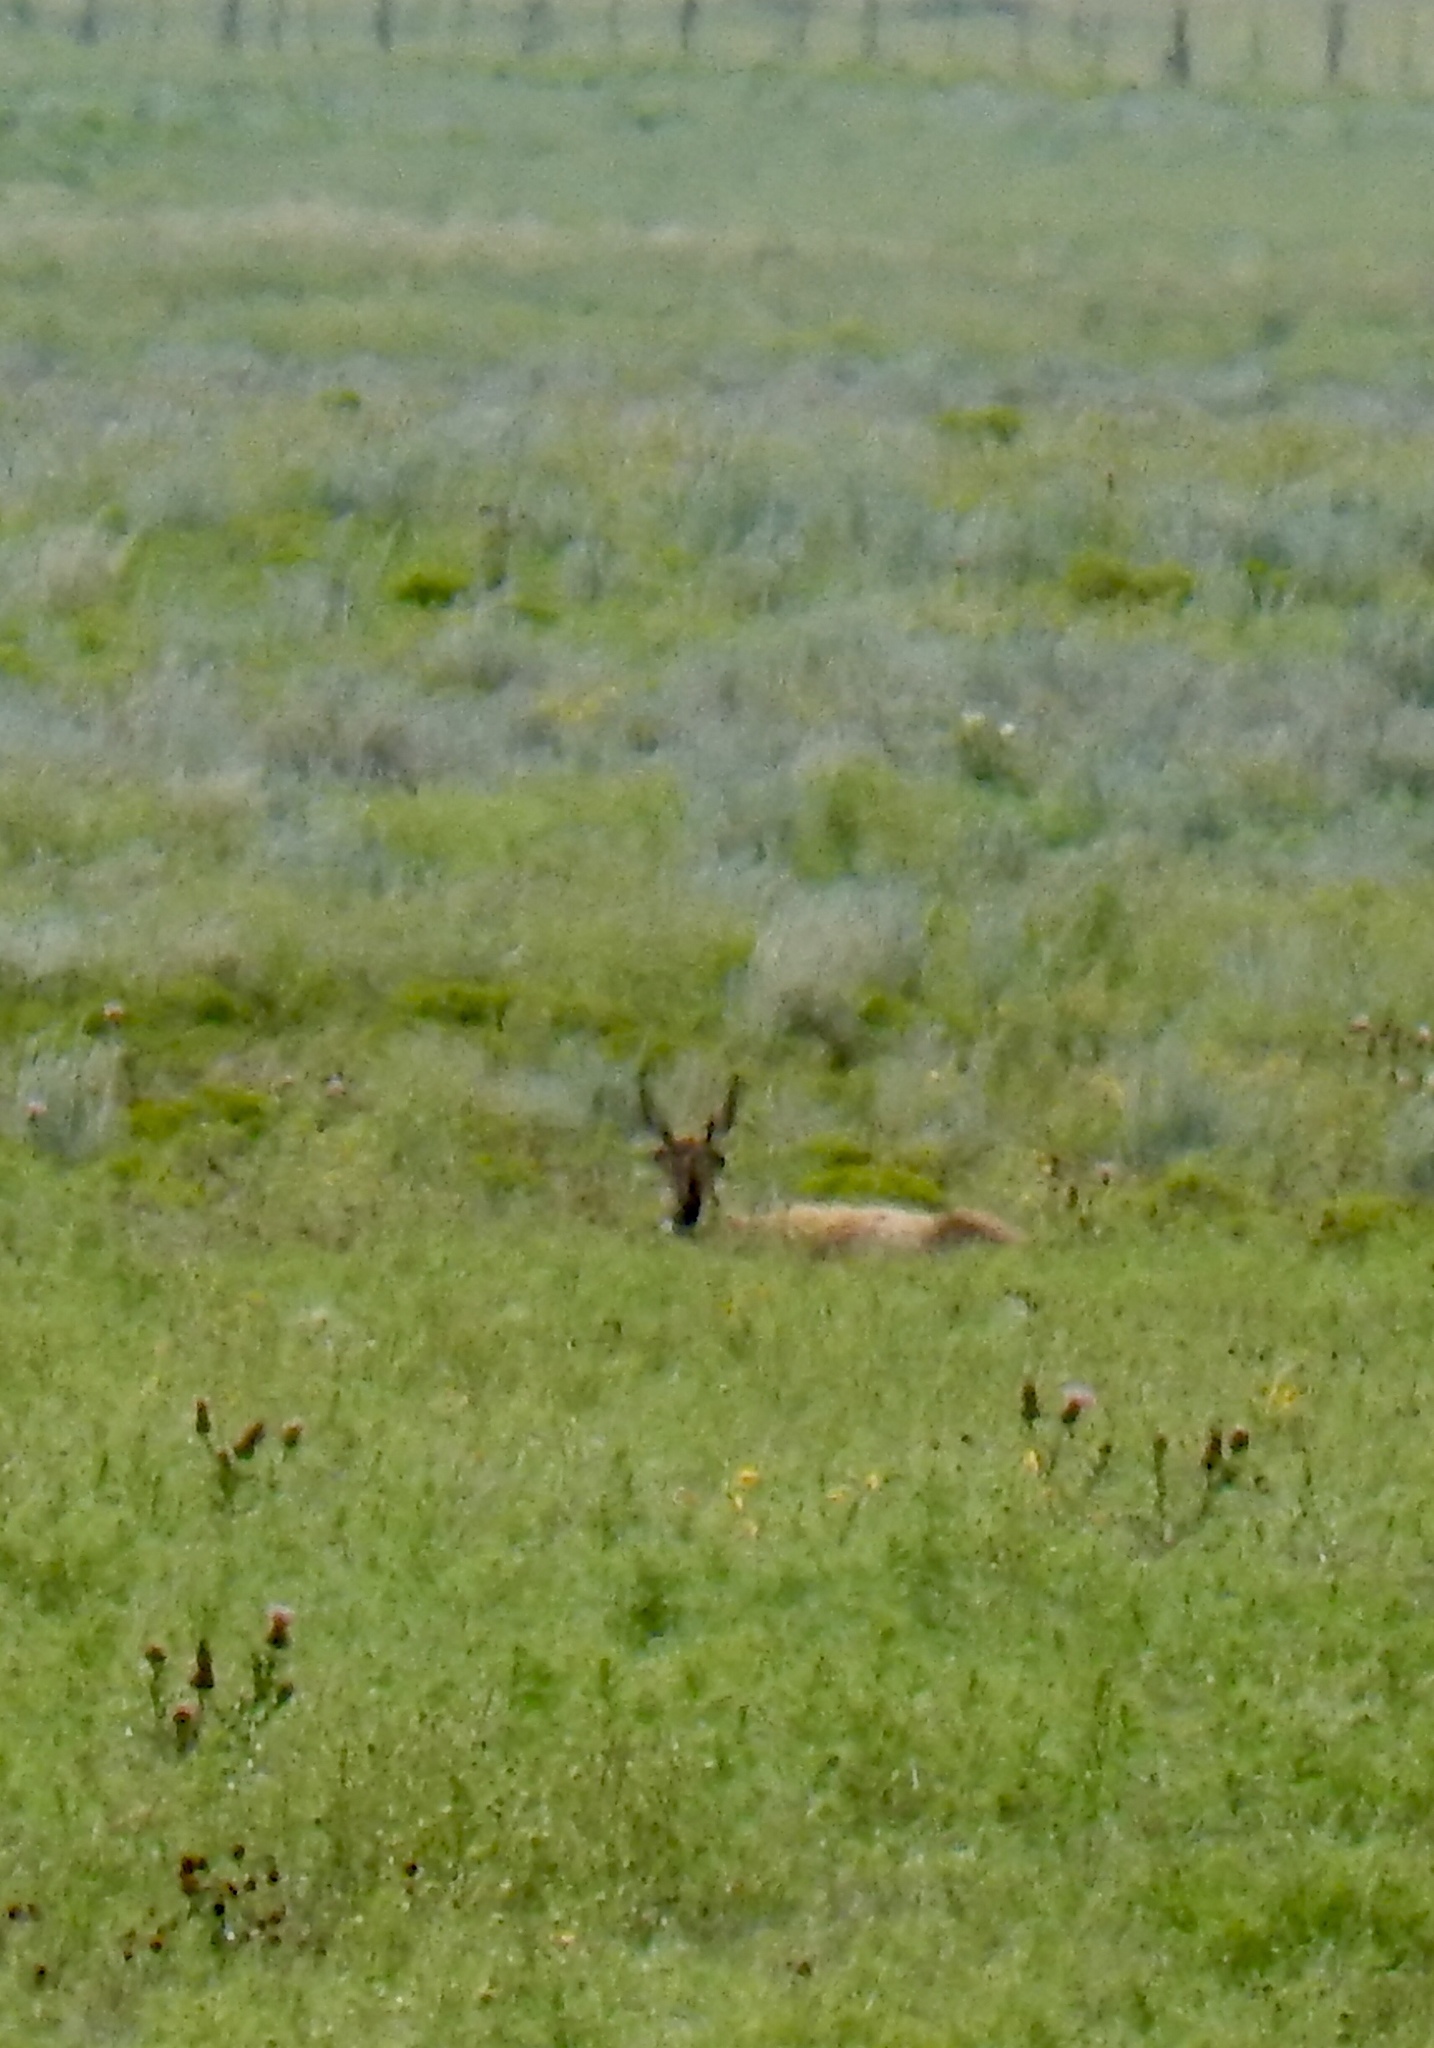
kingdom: Animalia
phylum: Chordata
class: Mammalia
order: Artiodactyla
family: Antilocapridae
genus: Antilocapra
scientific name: Antilocapra americana
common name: Pronghorn
